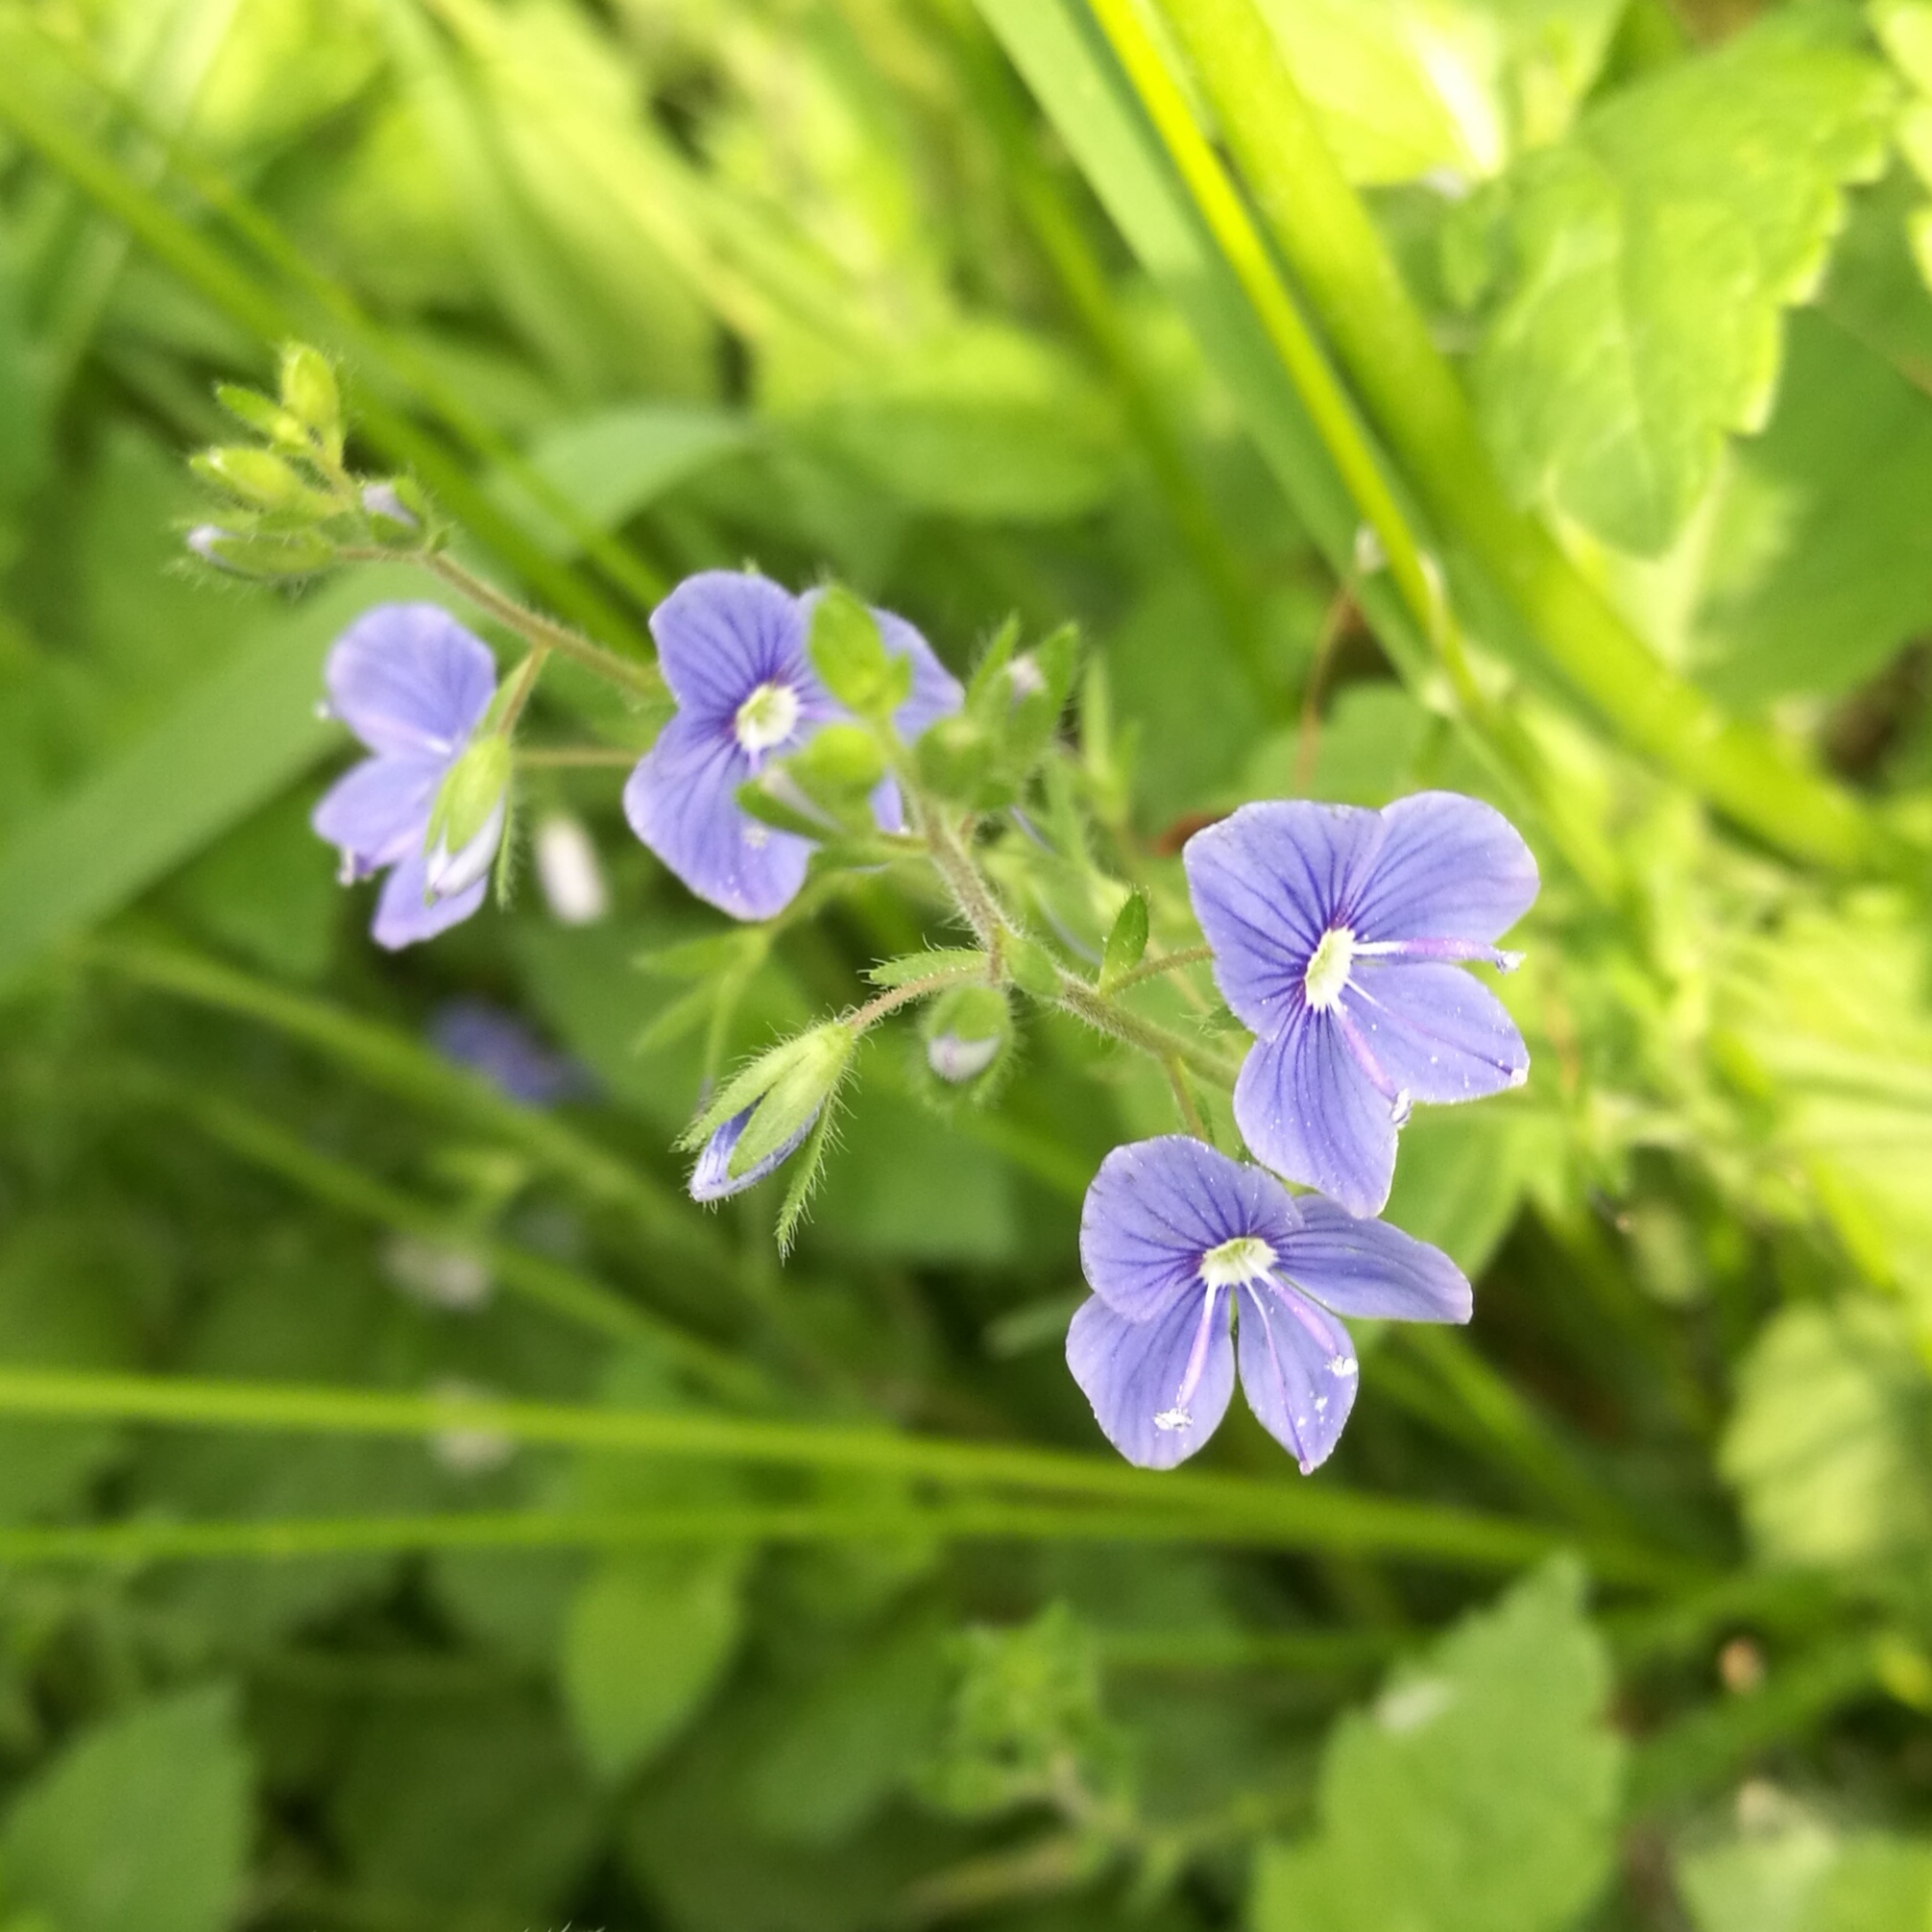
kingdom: Plantae
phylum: Tracheophyta
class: Magnoliopsida
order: Lamiales
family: Plantaginaceae
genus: Veronica
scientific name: Veronica chamaedrys
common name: Germander speedwell
